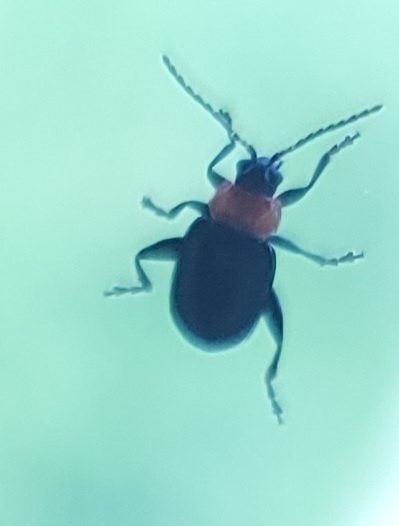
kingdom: Animalia
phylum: Arthropoda
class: Insecta
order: Coleoptera
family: Chrysomelidae
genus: Disonycha
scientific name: Disonycha xanthomelas
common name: Spinach flea beetle
